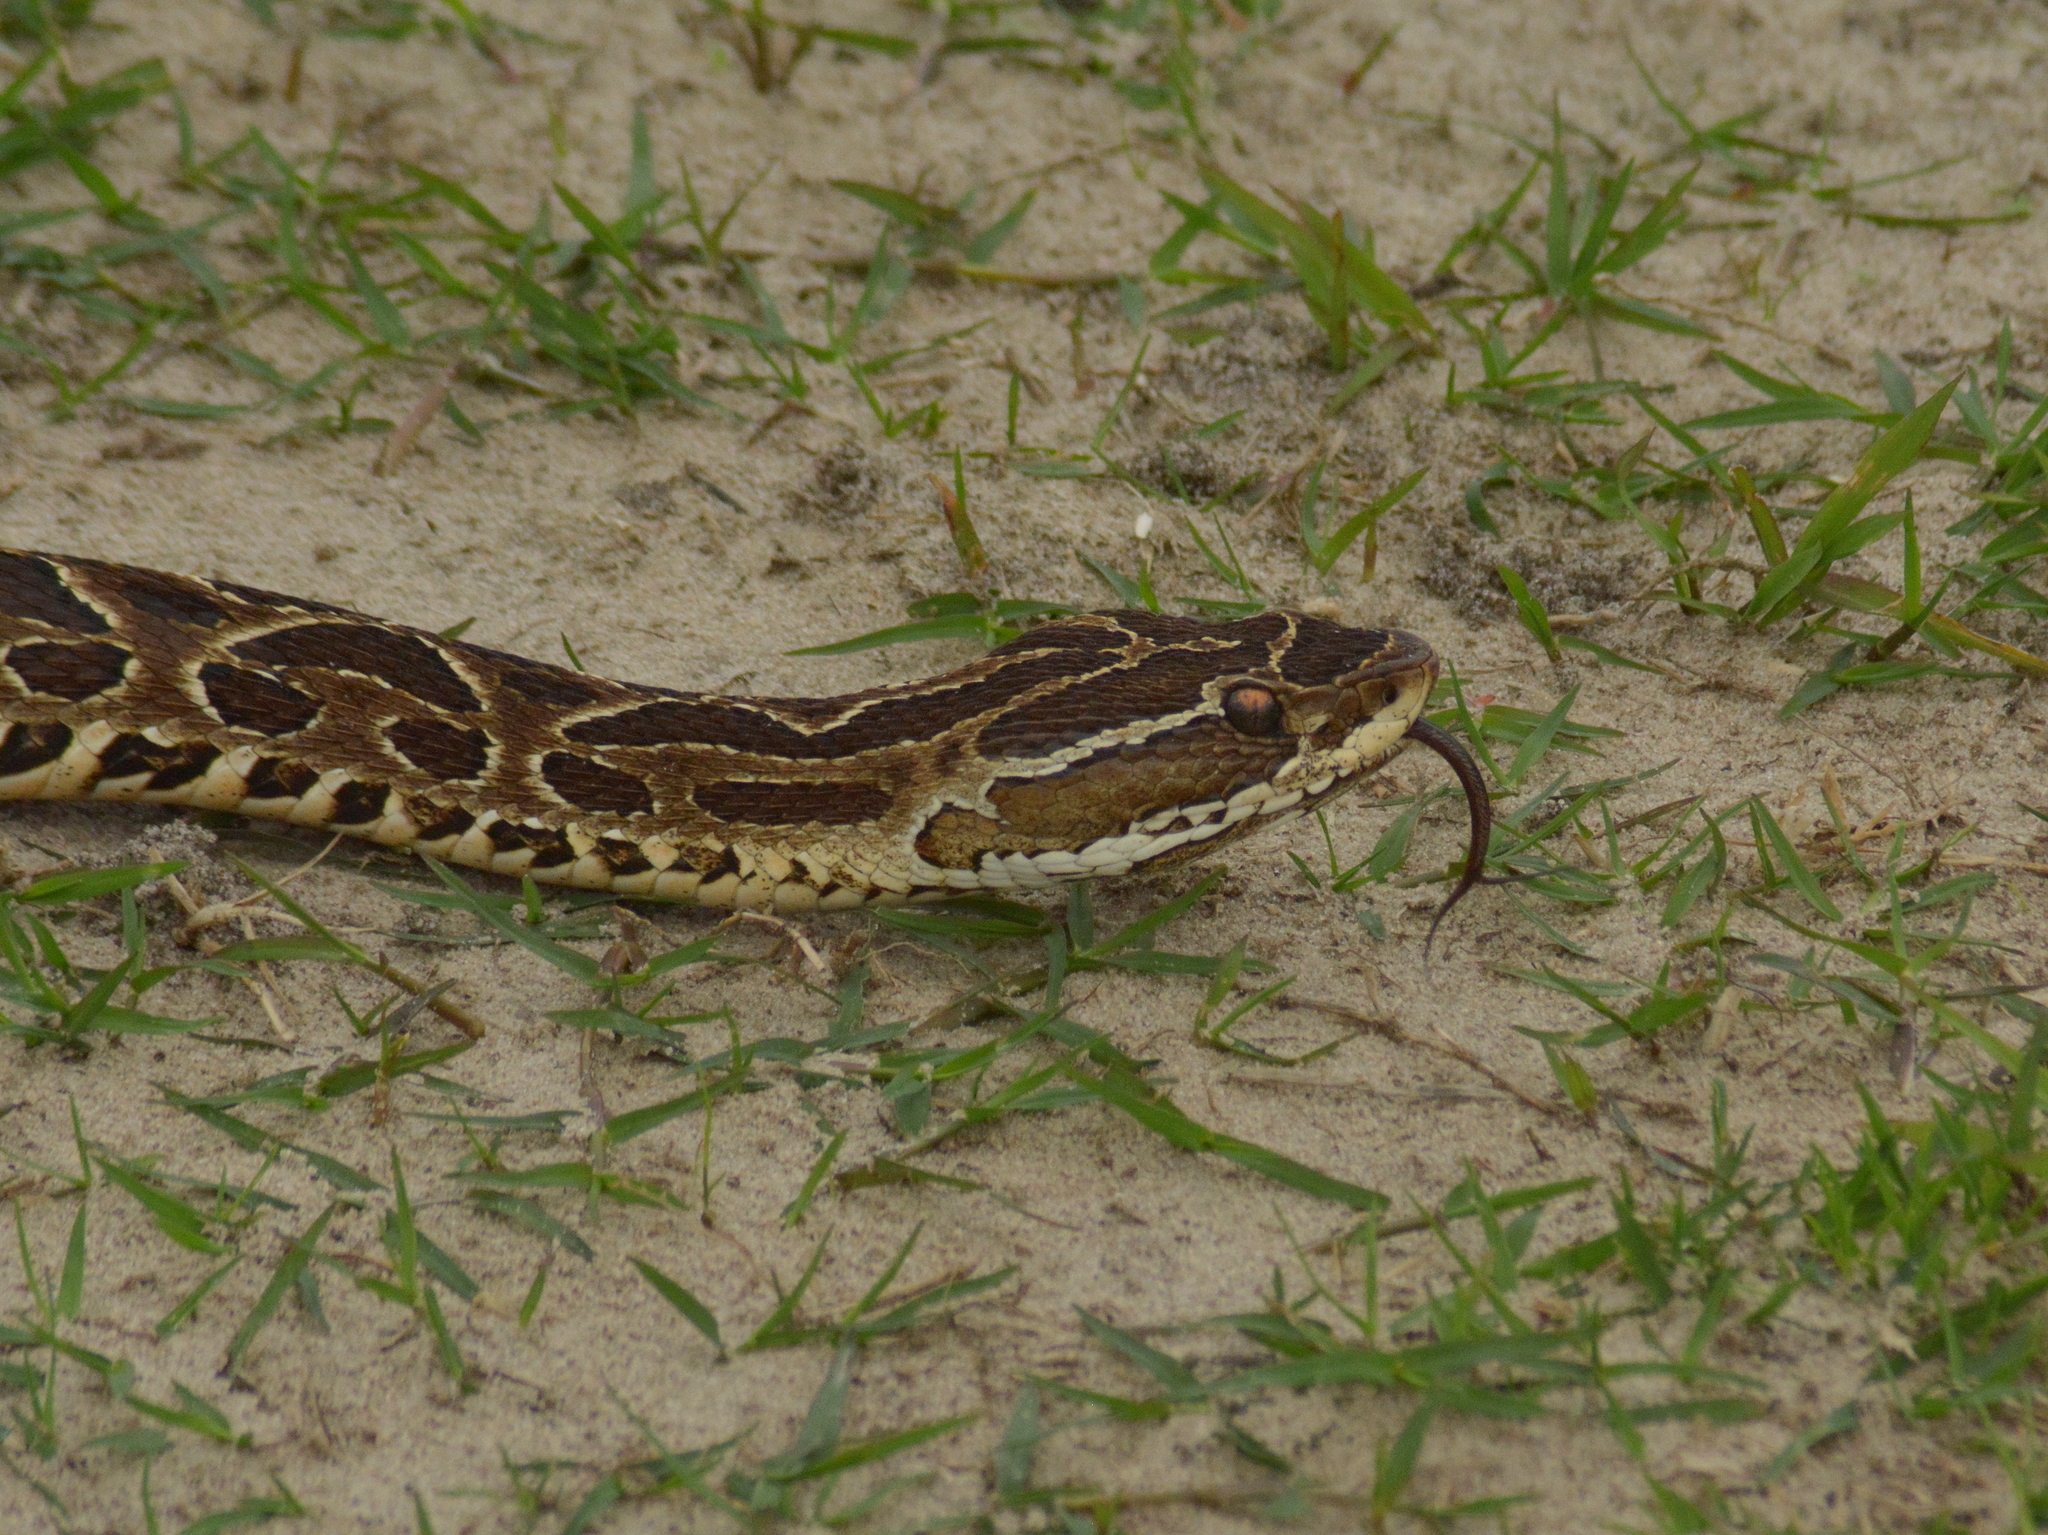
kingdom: Animalia
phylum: Chordata
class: Squamata
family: Viperidae
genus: Bothrops
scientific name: Bothrops alternatus
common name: Urutu
